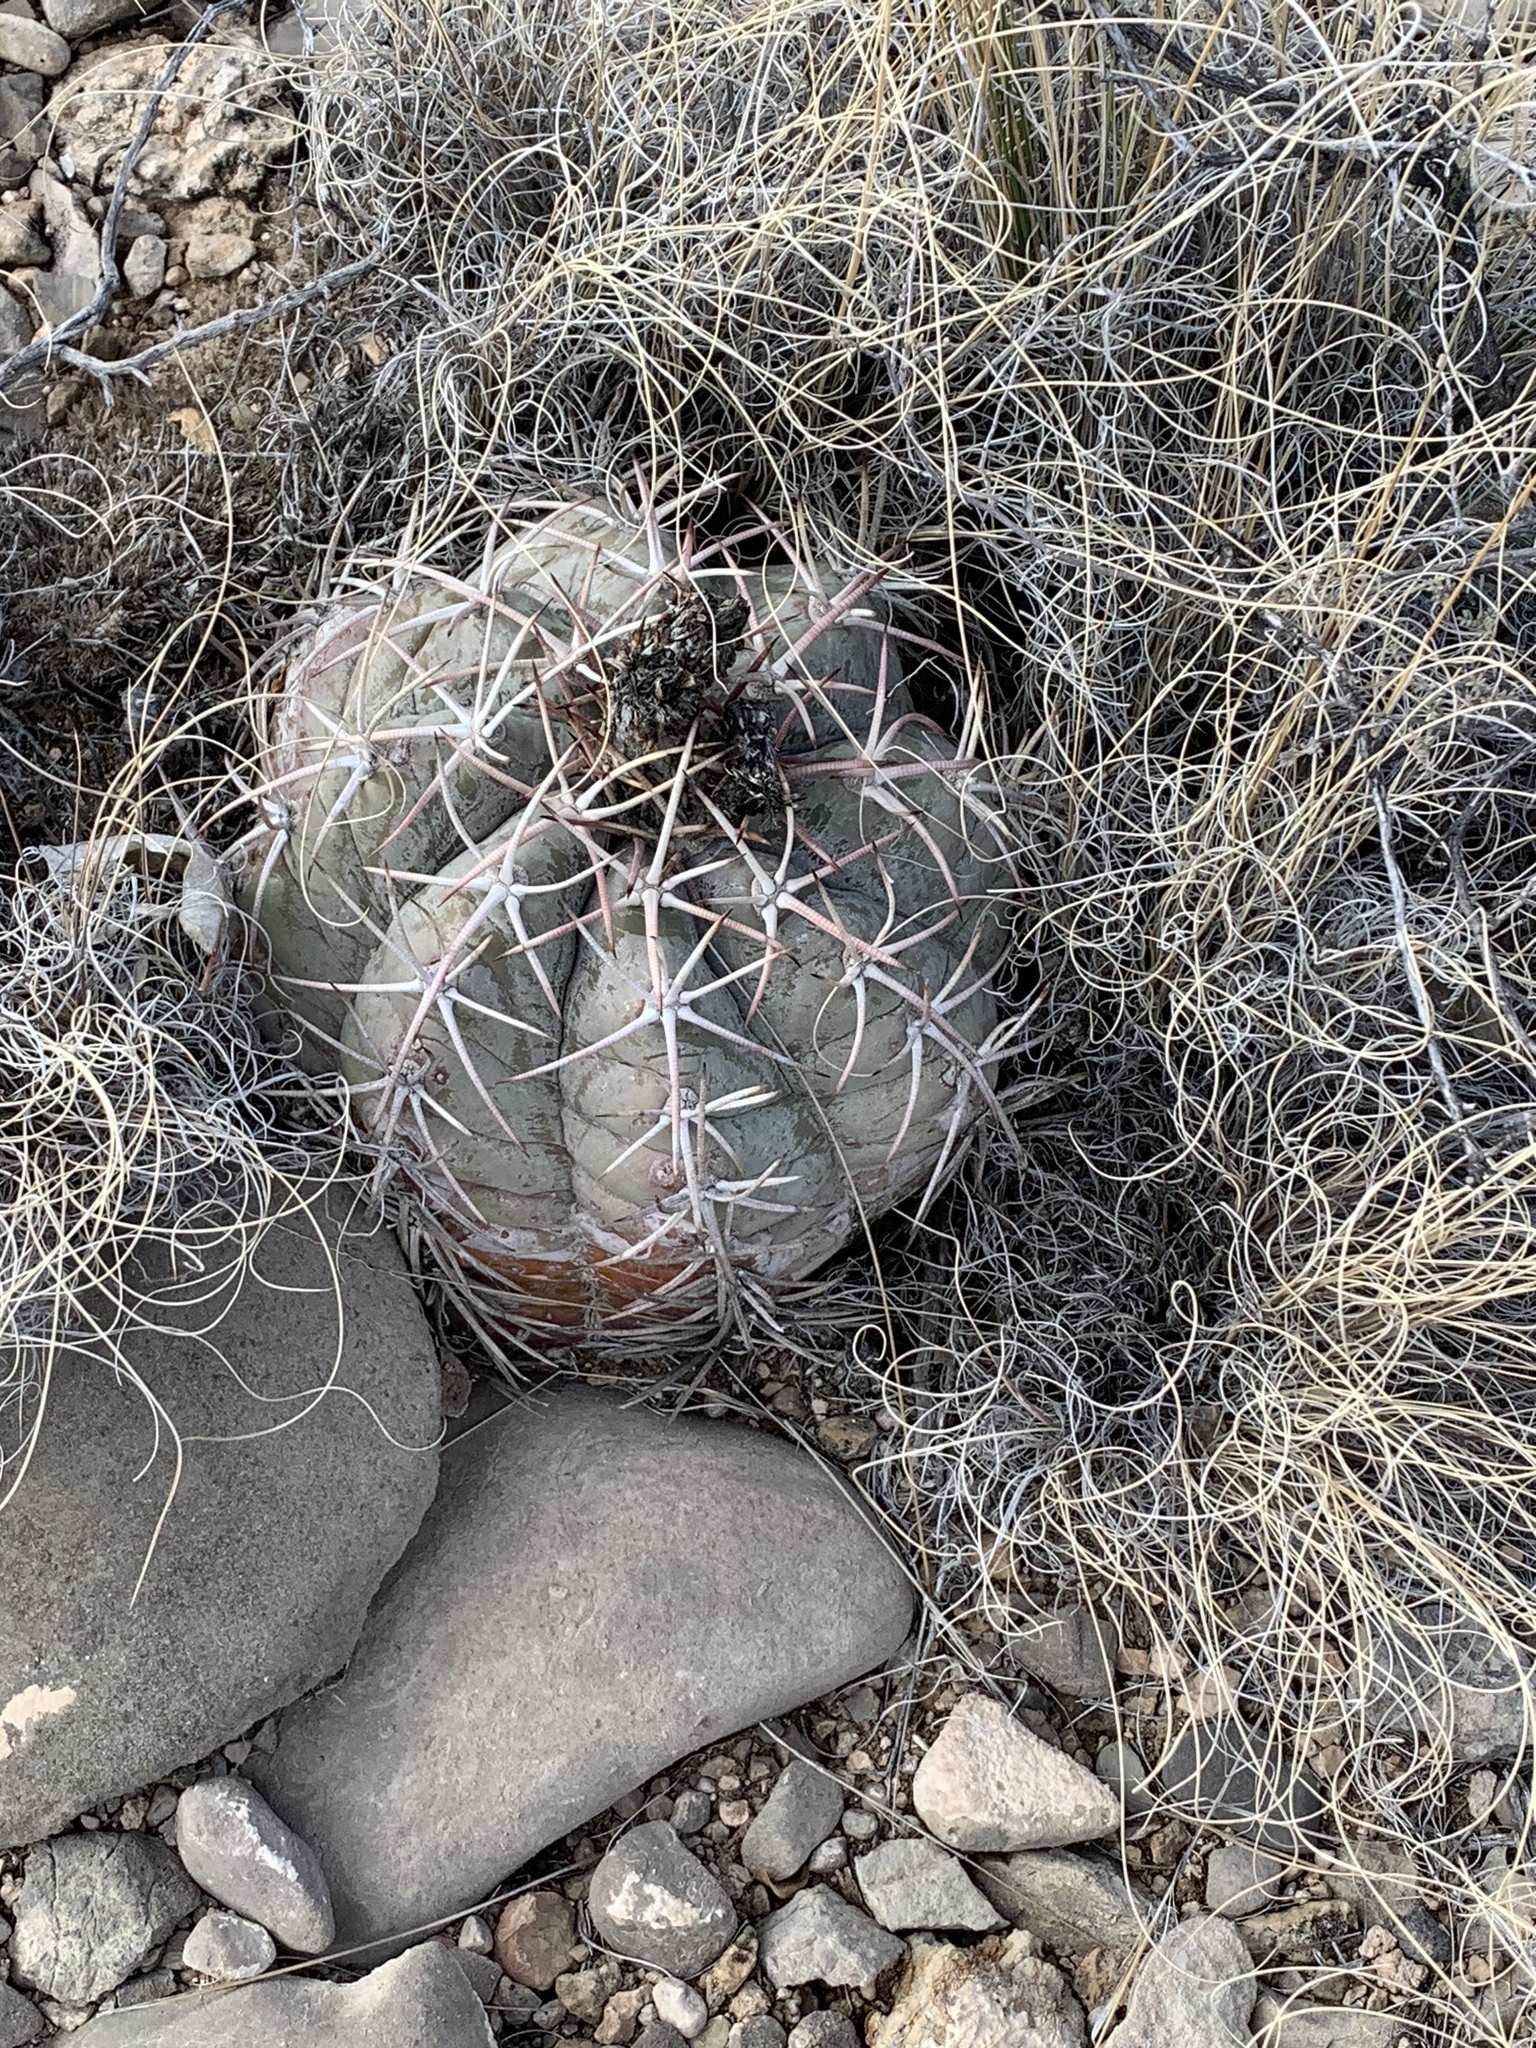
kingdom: Plantae
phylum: Tracheophyta
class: Magnoliopsida
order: Caryophyllales
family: Cactaceae
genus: Echinocactus
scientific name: Echinocactus horizonthalonius
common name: Devilshead
